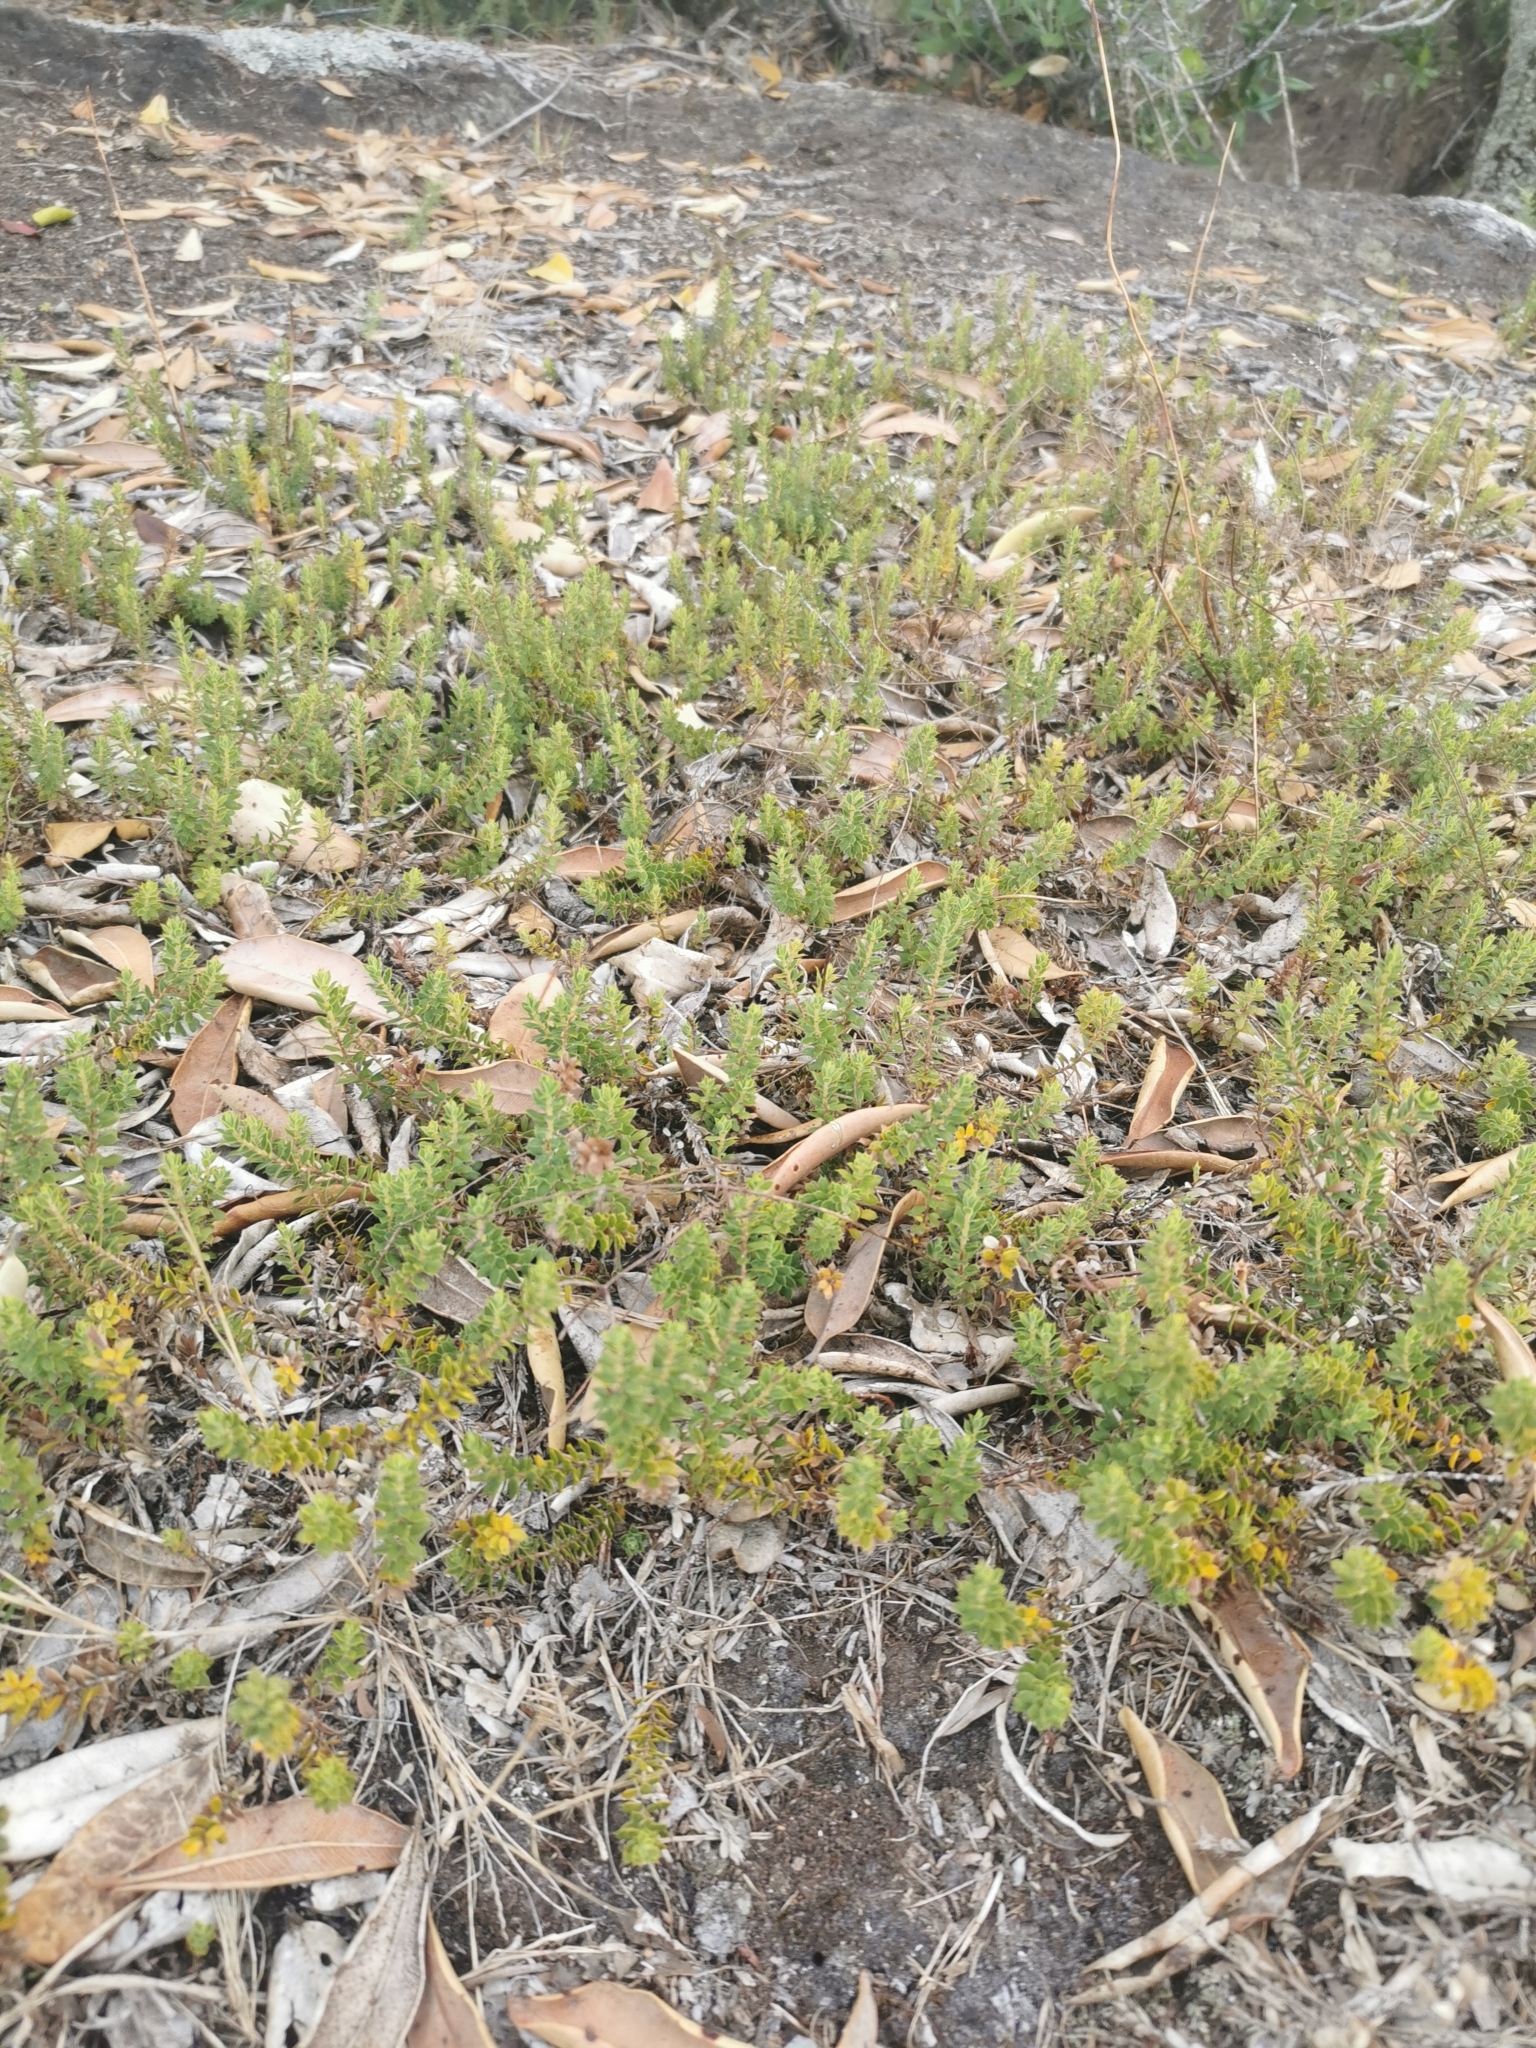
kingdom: Plantae
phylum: Tracheophyta
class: Magnoliopsida
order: Ericales
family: Ericaceae
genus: Styphelia
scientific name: Styphelia nesophila
